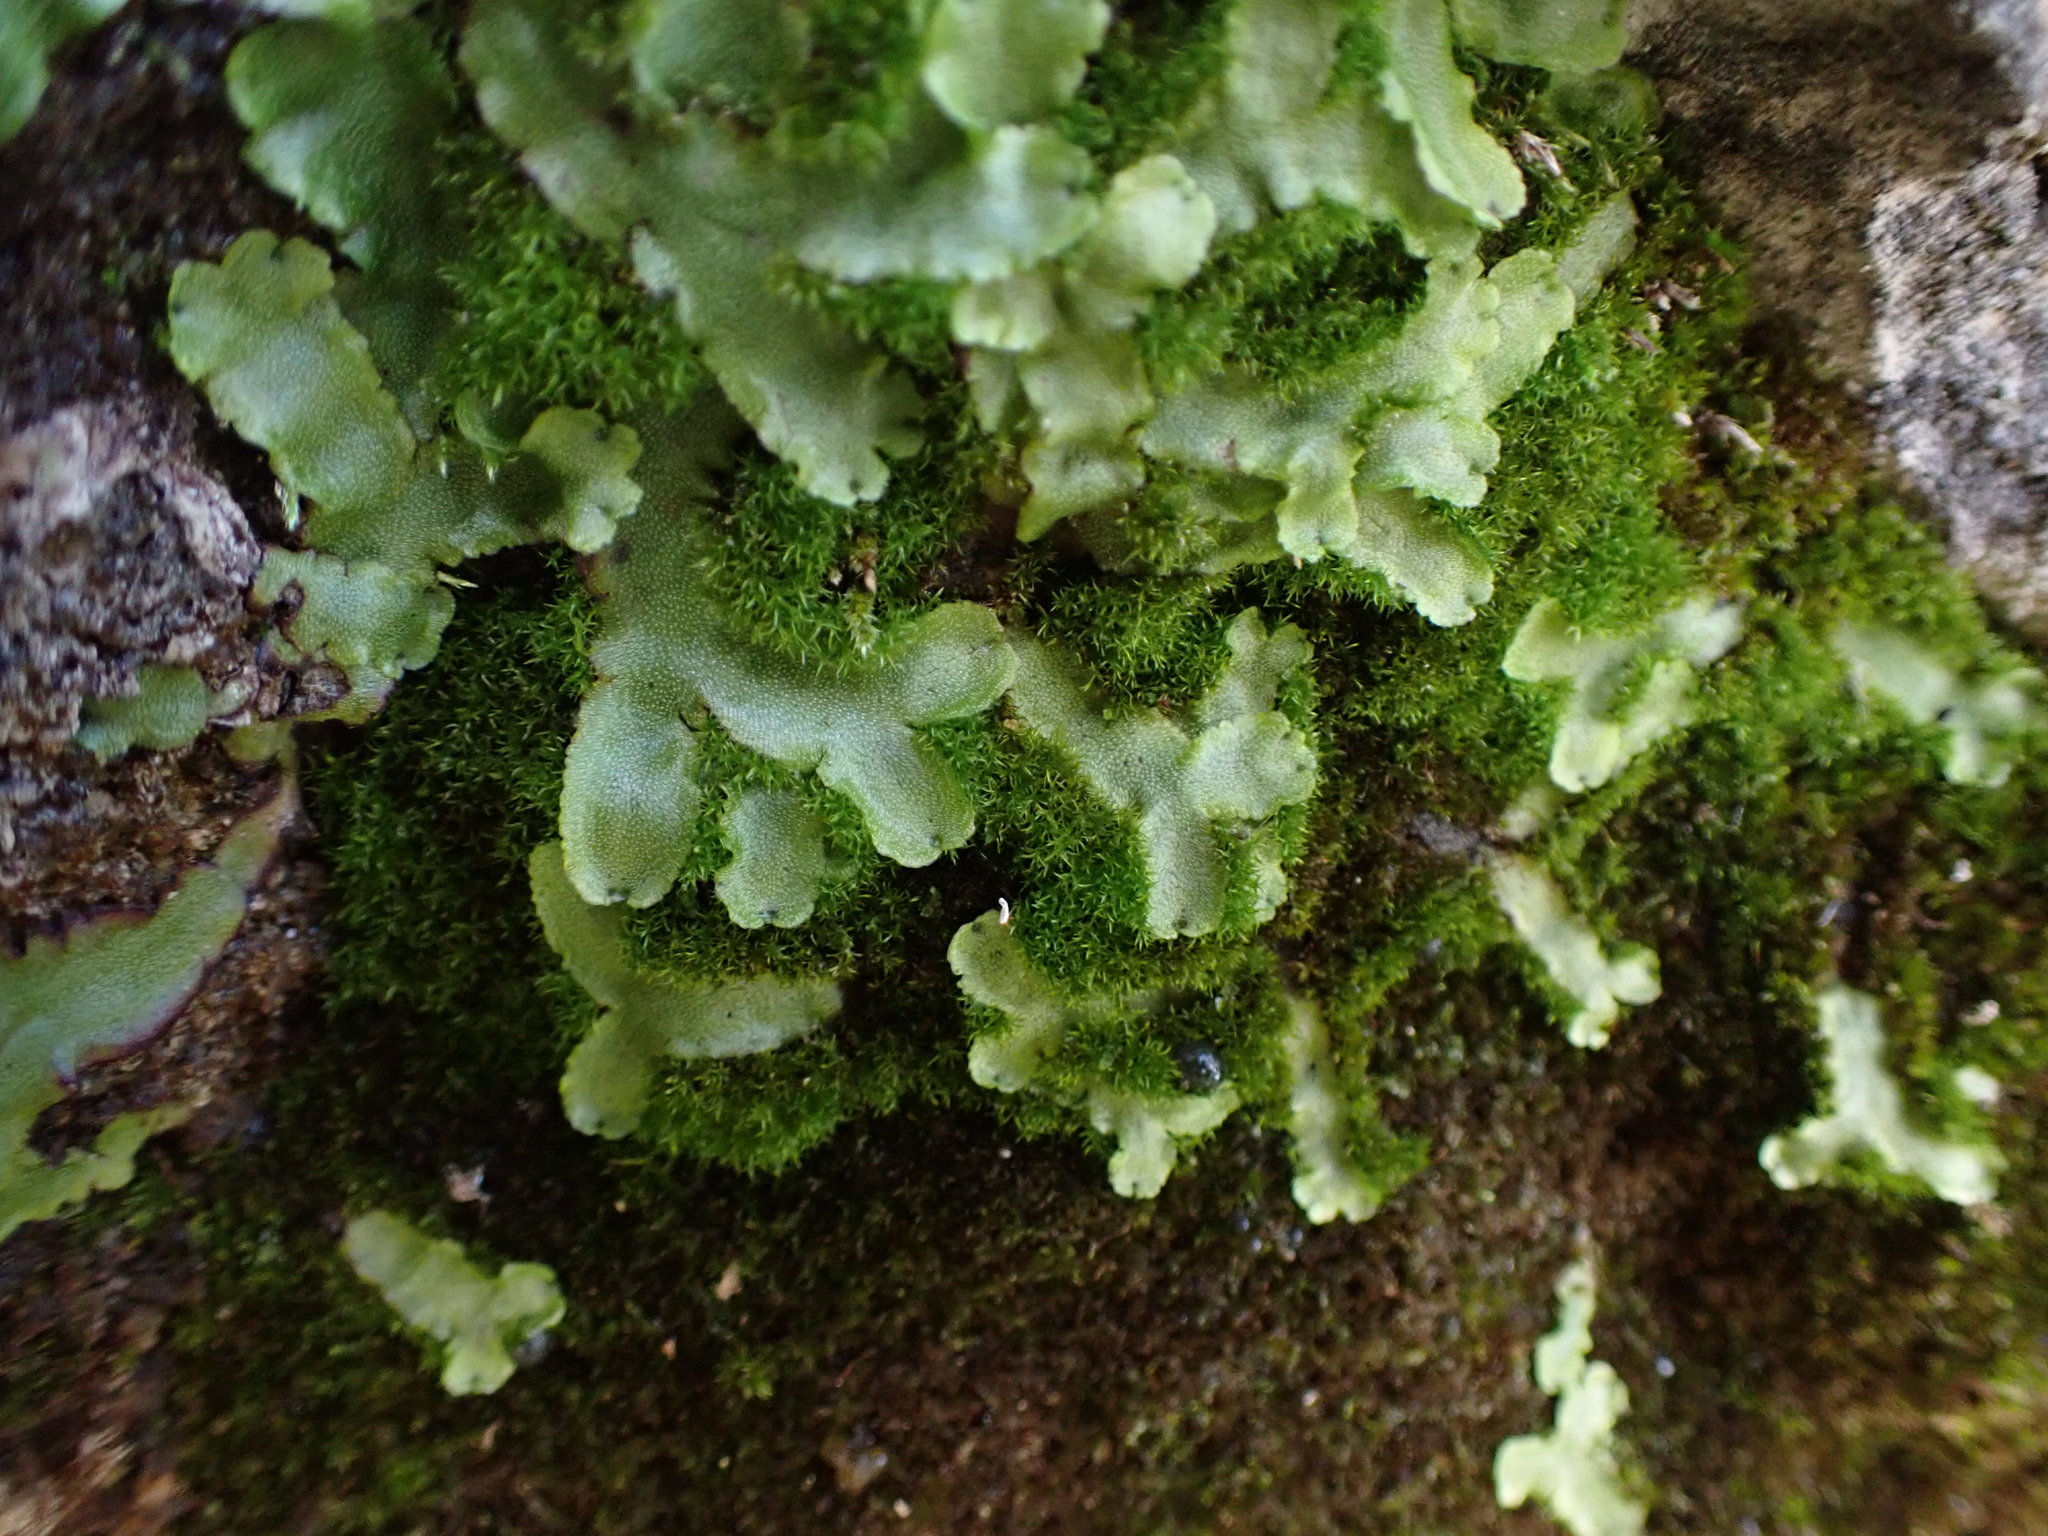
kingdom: Plantae
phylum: Marchantiophyta
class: Marchantiopsida
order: Marchantiales
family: Marchantiaceae
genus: Marchantia
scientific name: Marchantia quadrata
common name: Narrow mushroom-headed liverwort
